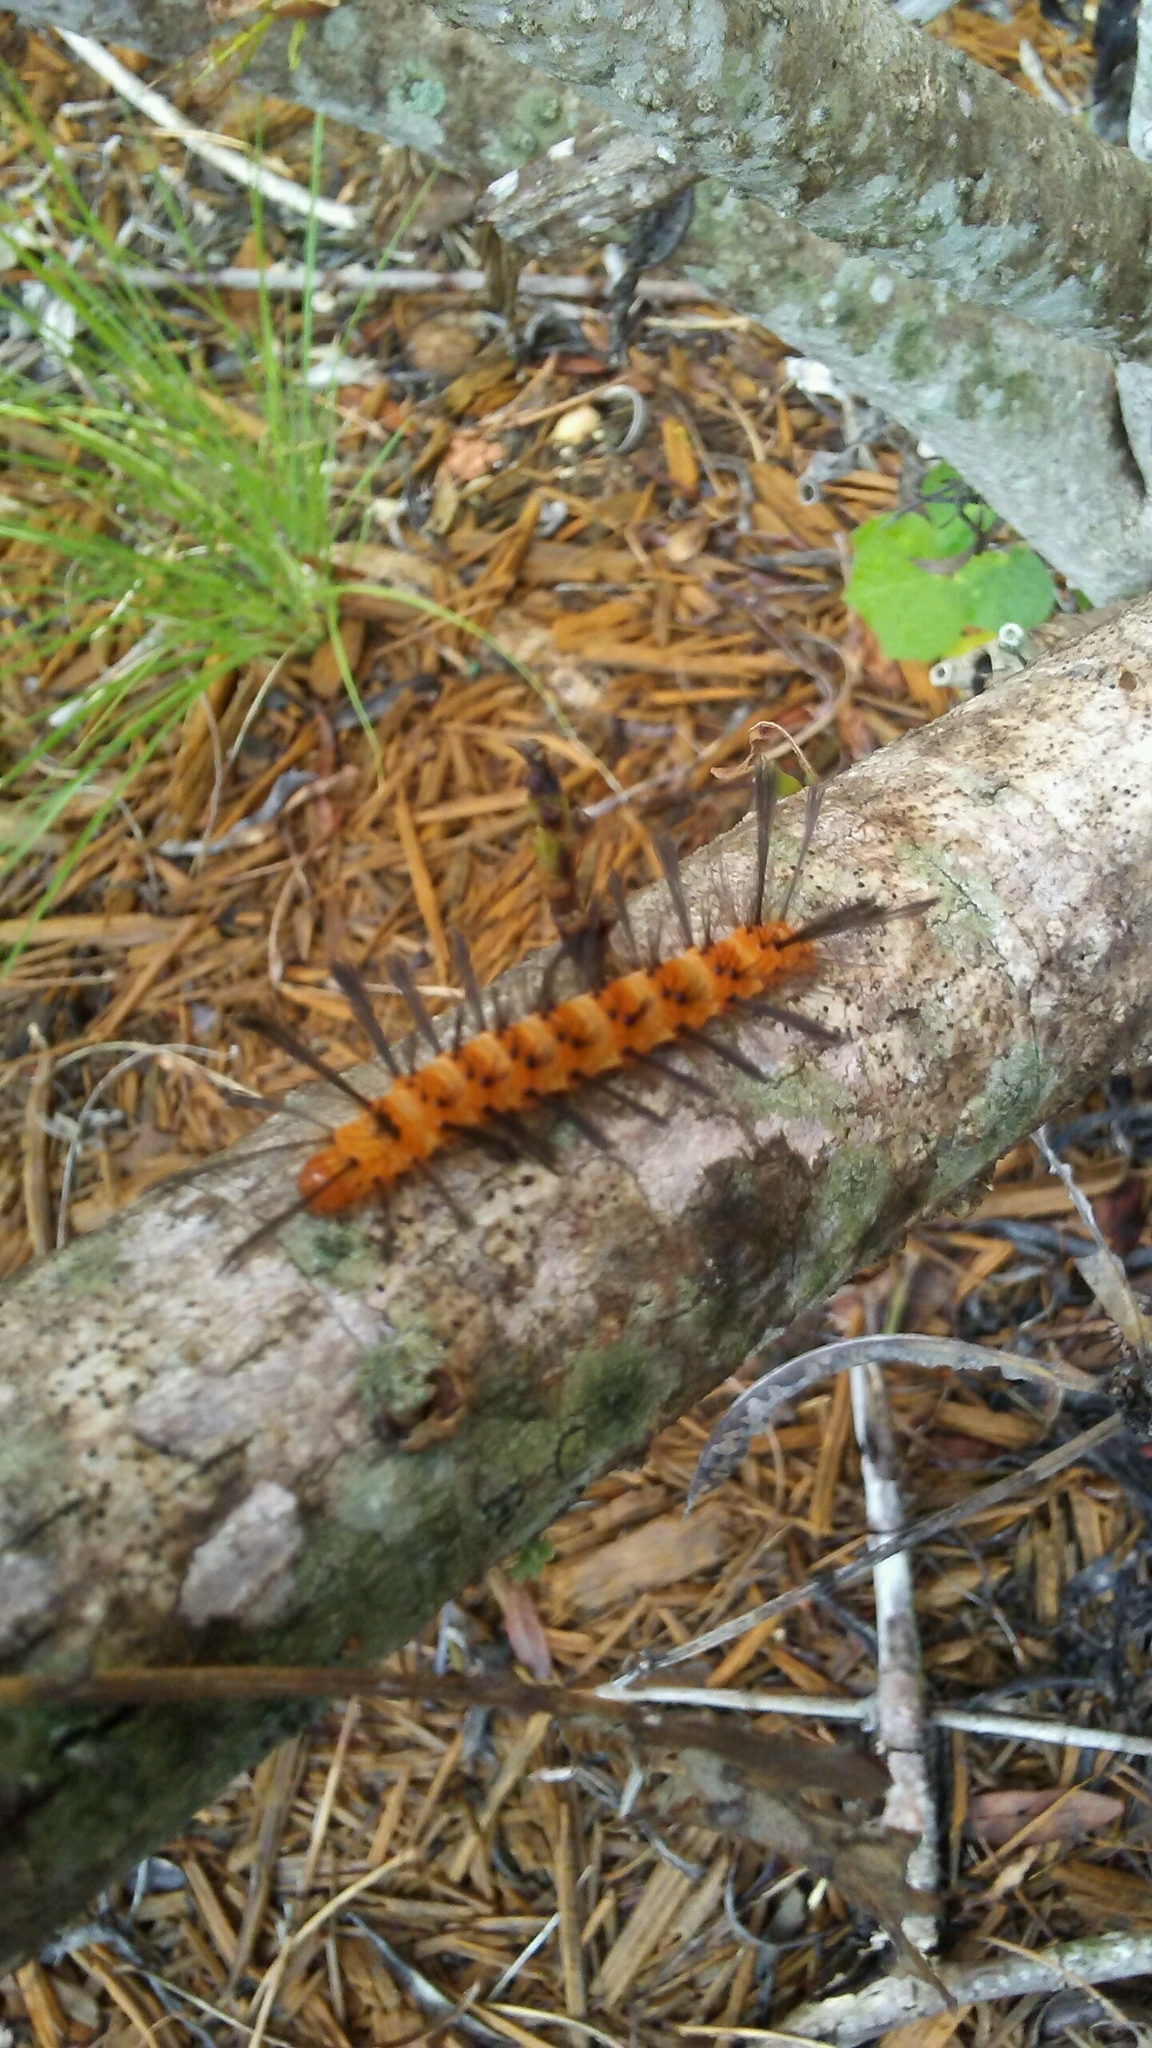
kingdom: Animalia
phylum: Arthropoda
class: Insecta
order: Lepidoptera
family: Erebidae
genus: Syntomeida
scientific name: Syntomeida epilais
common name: Polka-dot wasp moth
